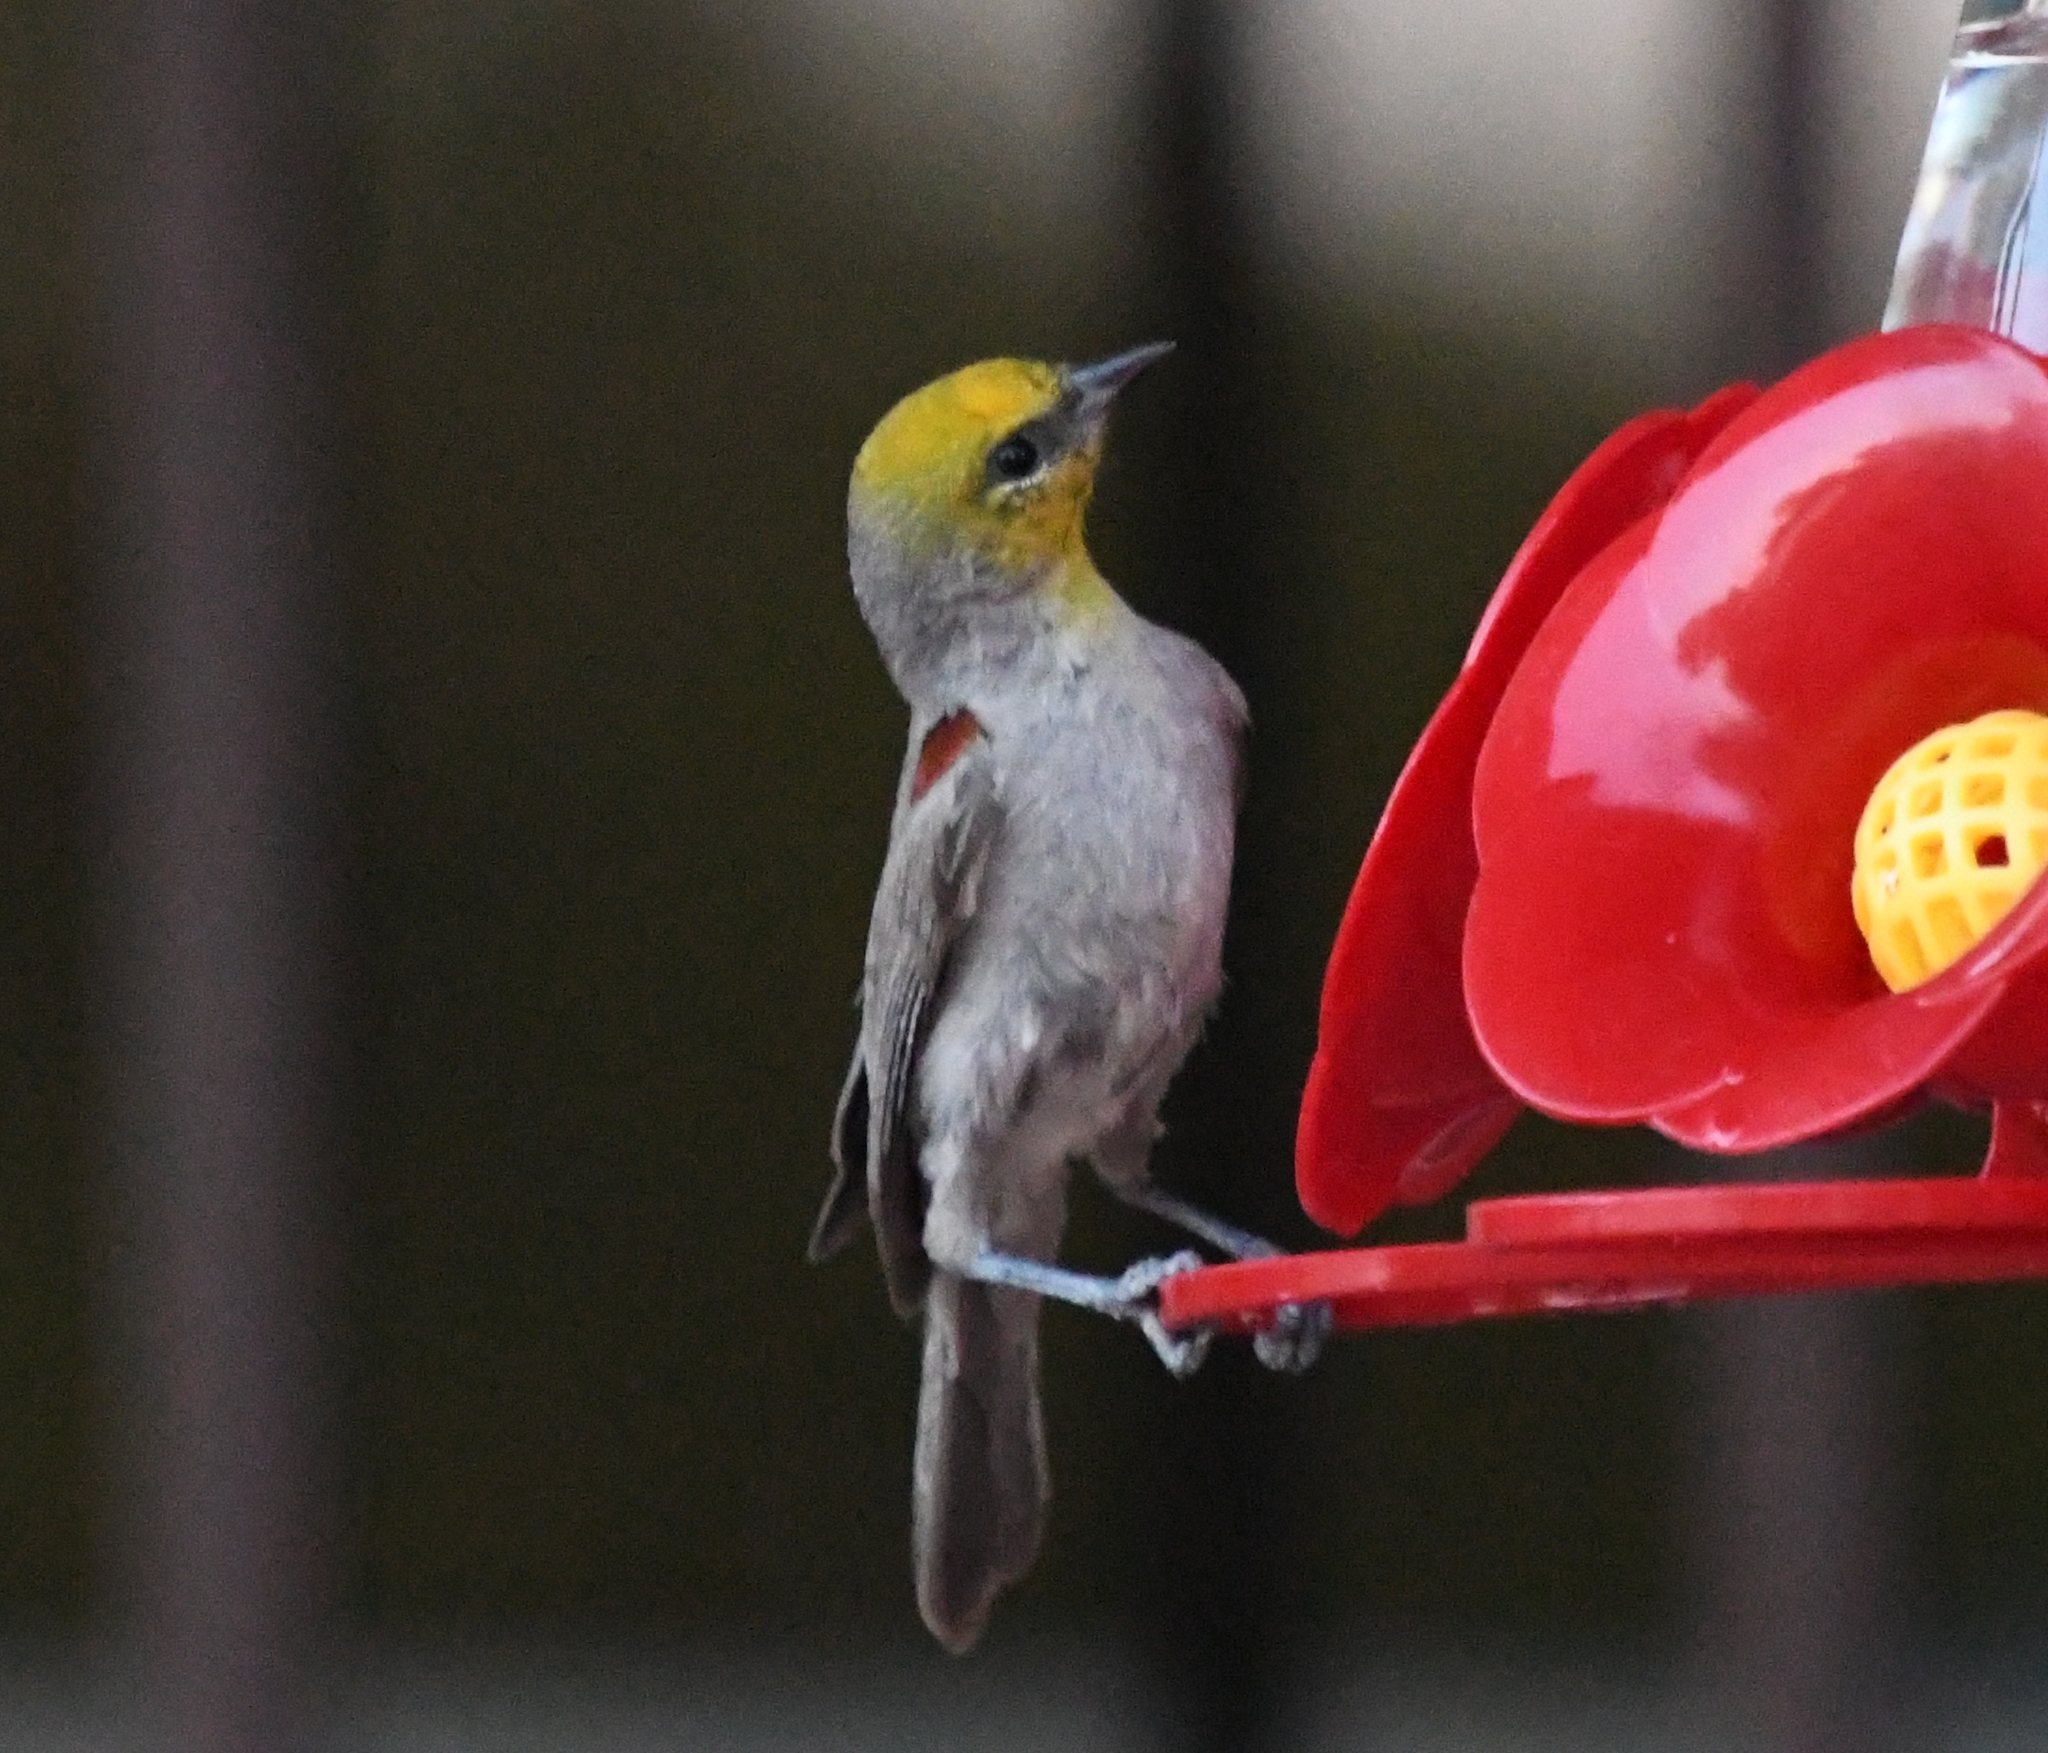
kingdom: Animalia
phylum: Chordata
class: Aves
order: Passeriformes
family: Remizidae
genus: Auriparus
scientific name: Auriparus flaviceps
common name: Verdin
